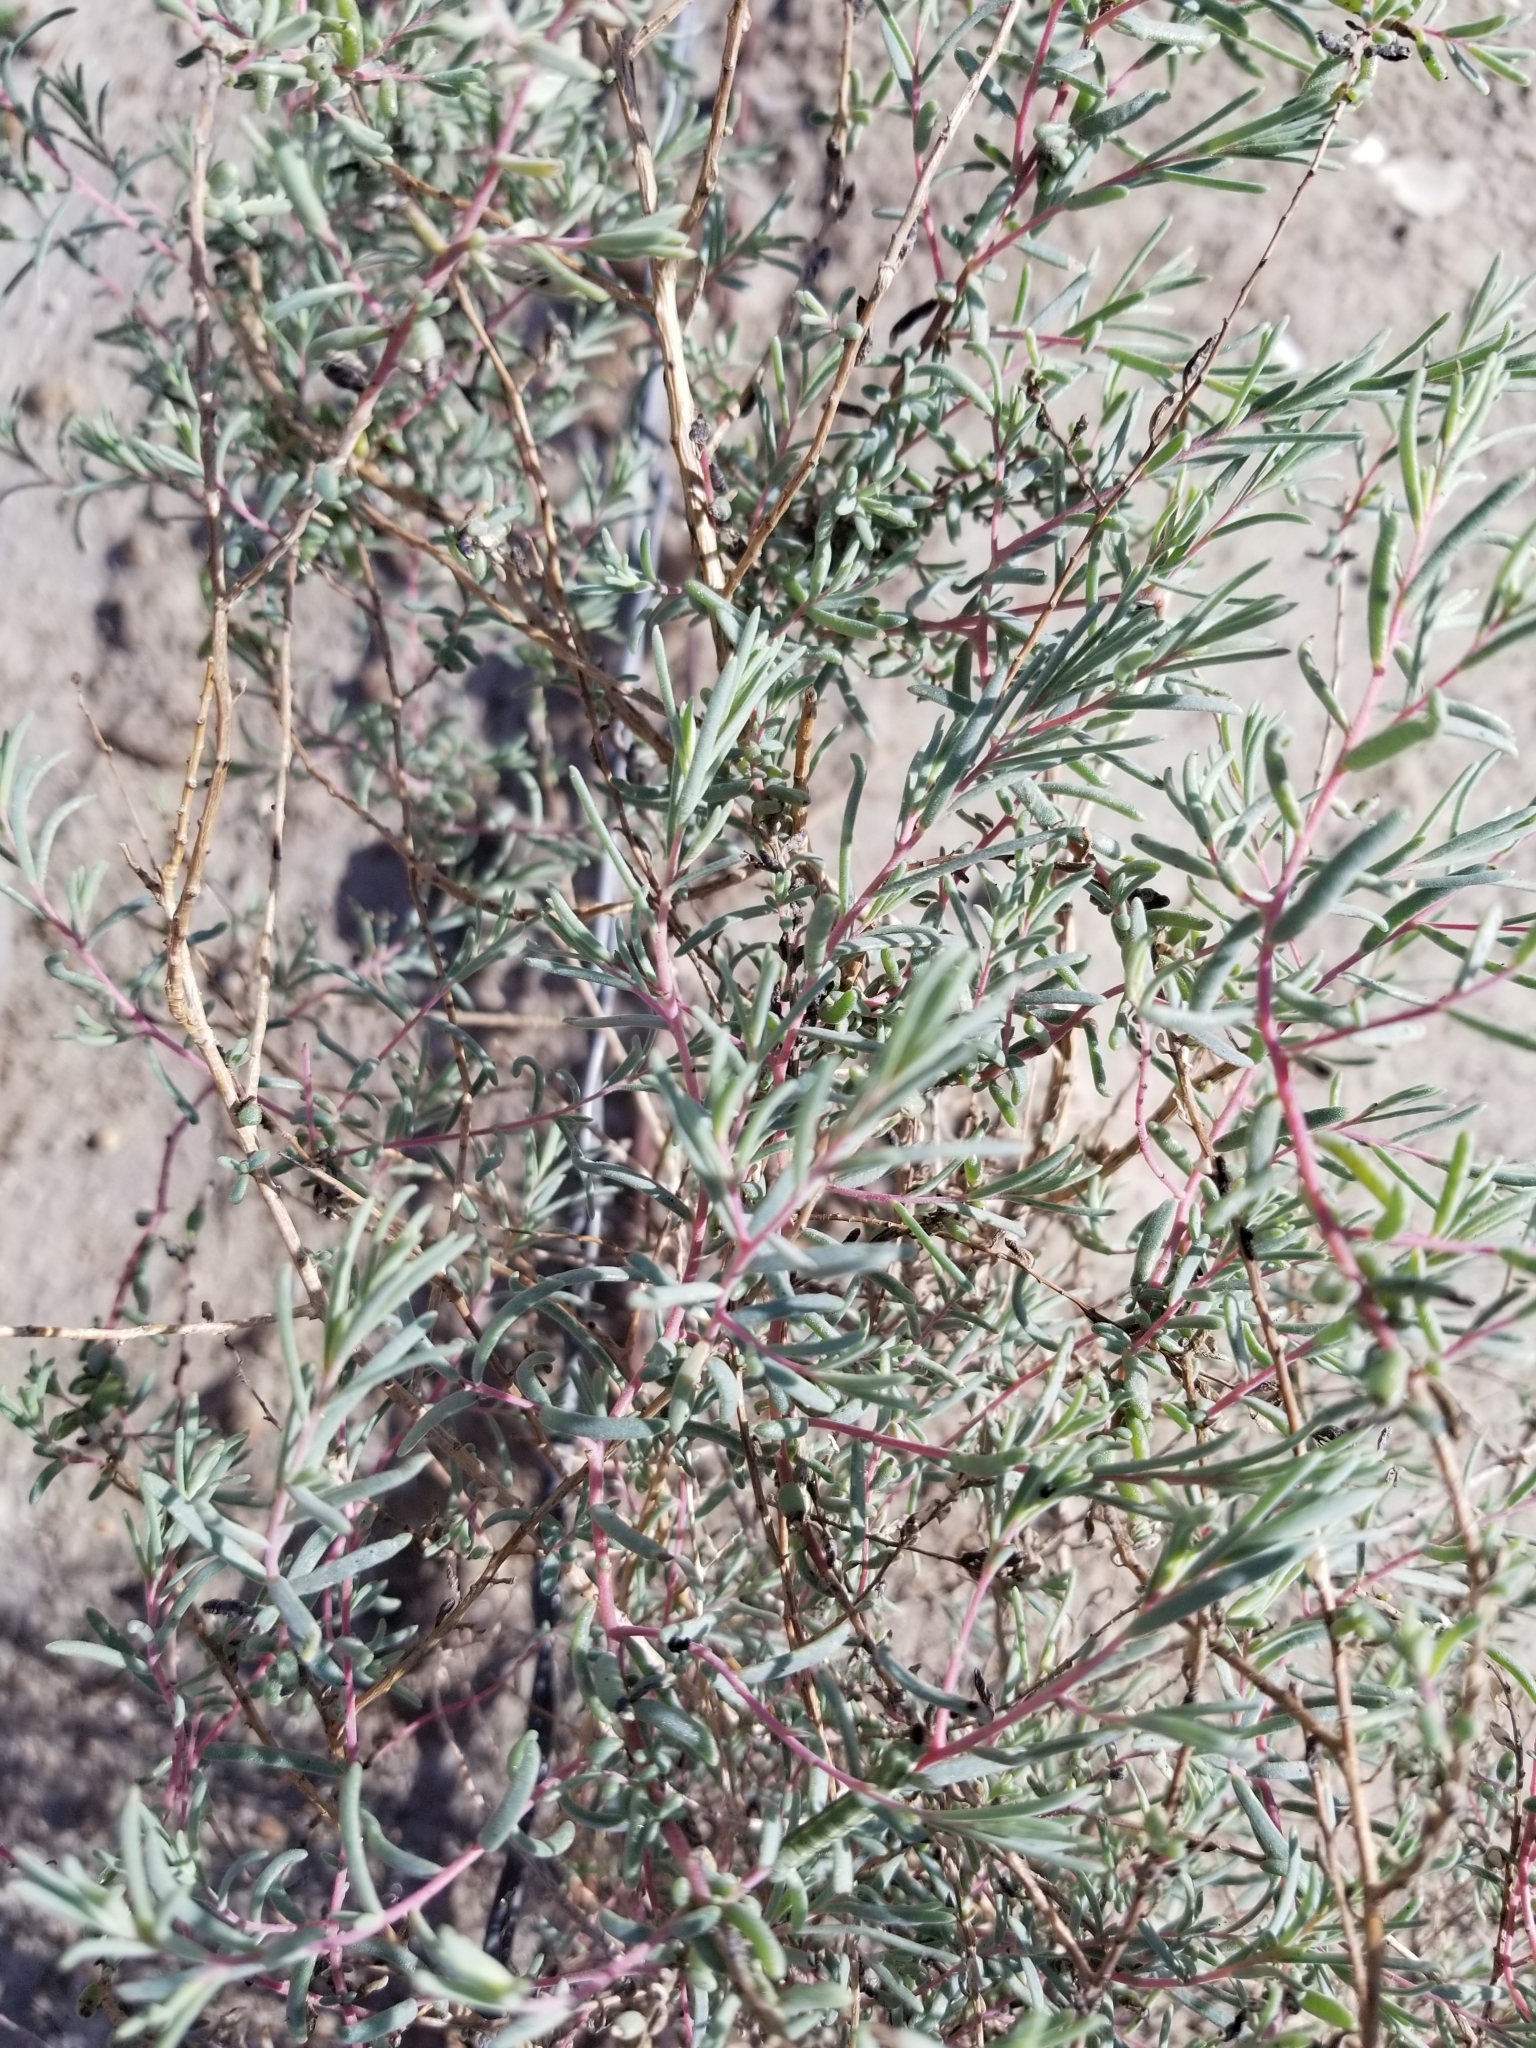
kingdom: Plantae
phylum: Tracheophyta
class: Magnoliopsida
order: Caryophyllales
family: Amaranthaceae
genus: Suaeda
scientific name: Suaeda nigra
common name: Bush seepweed
